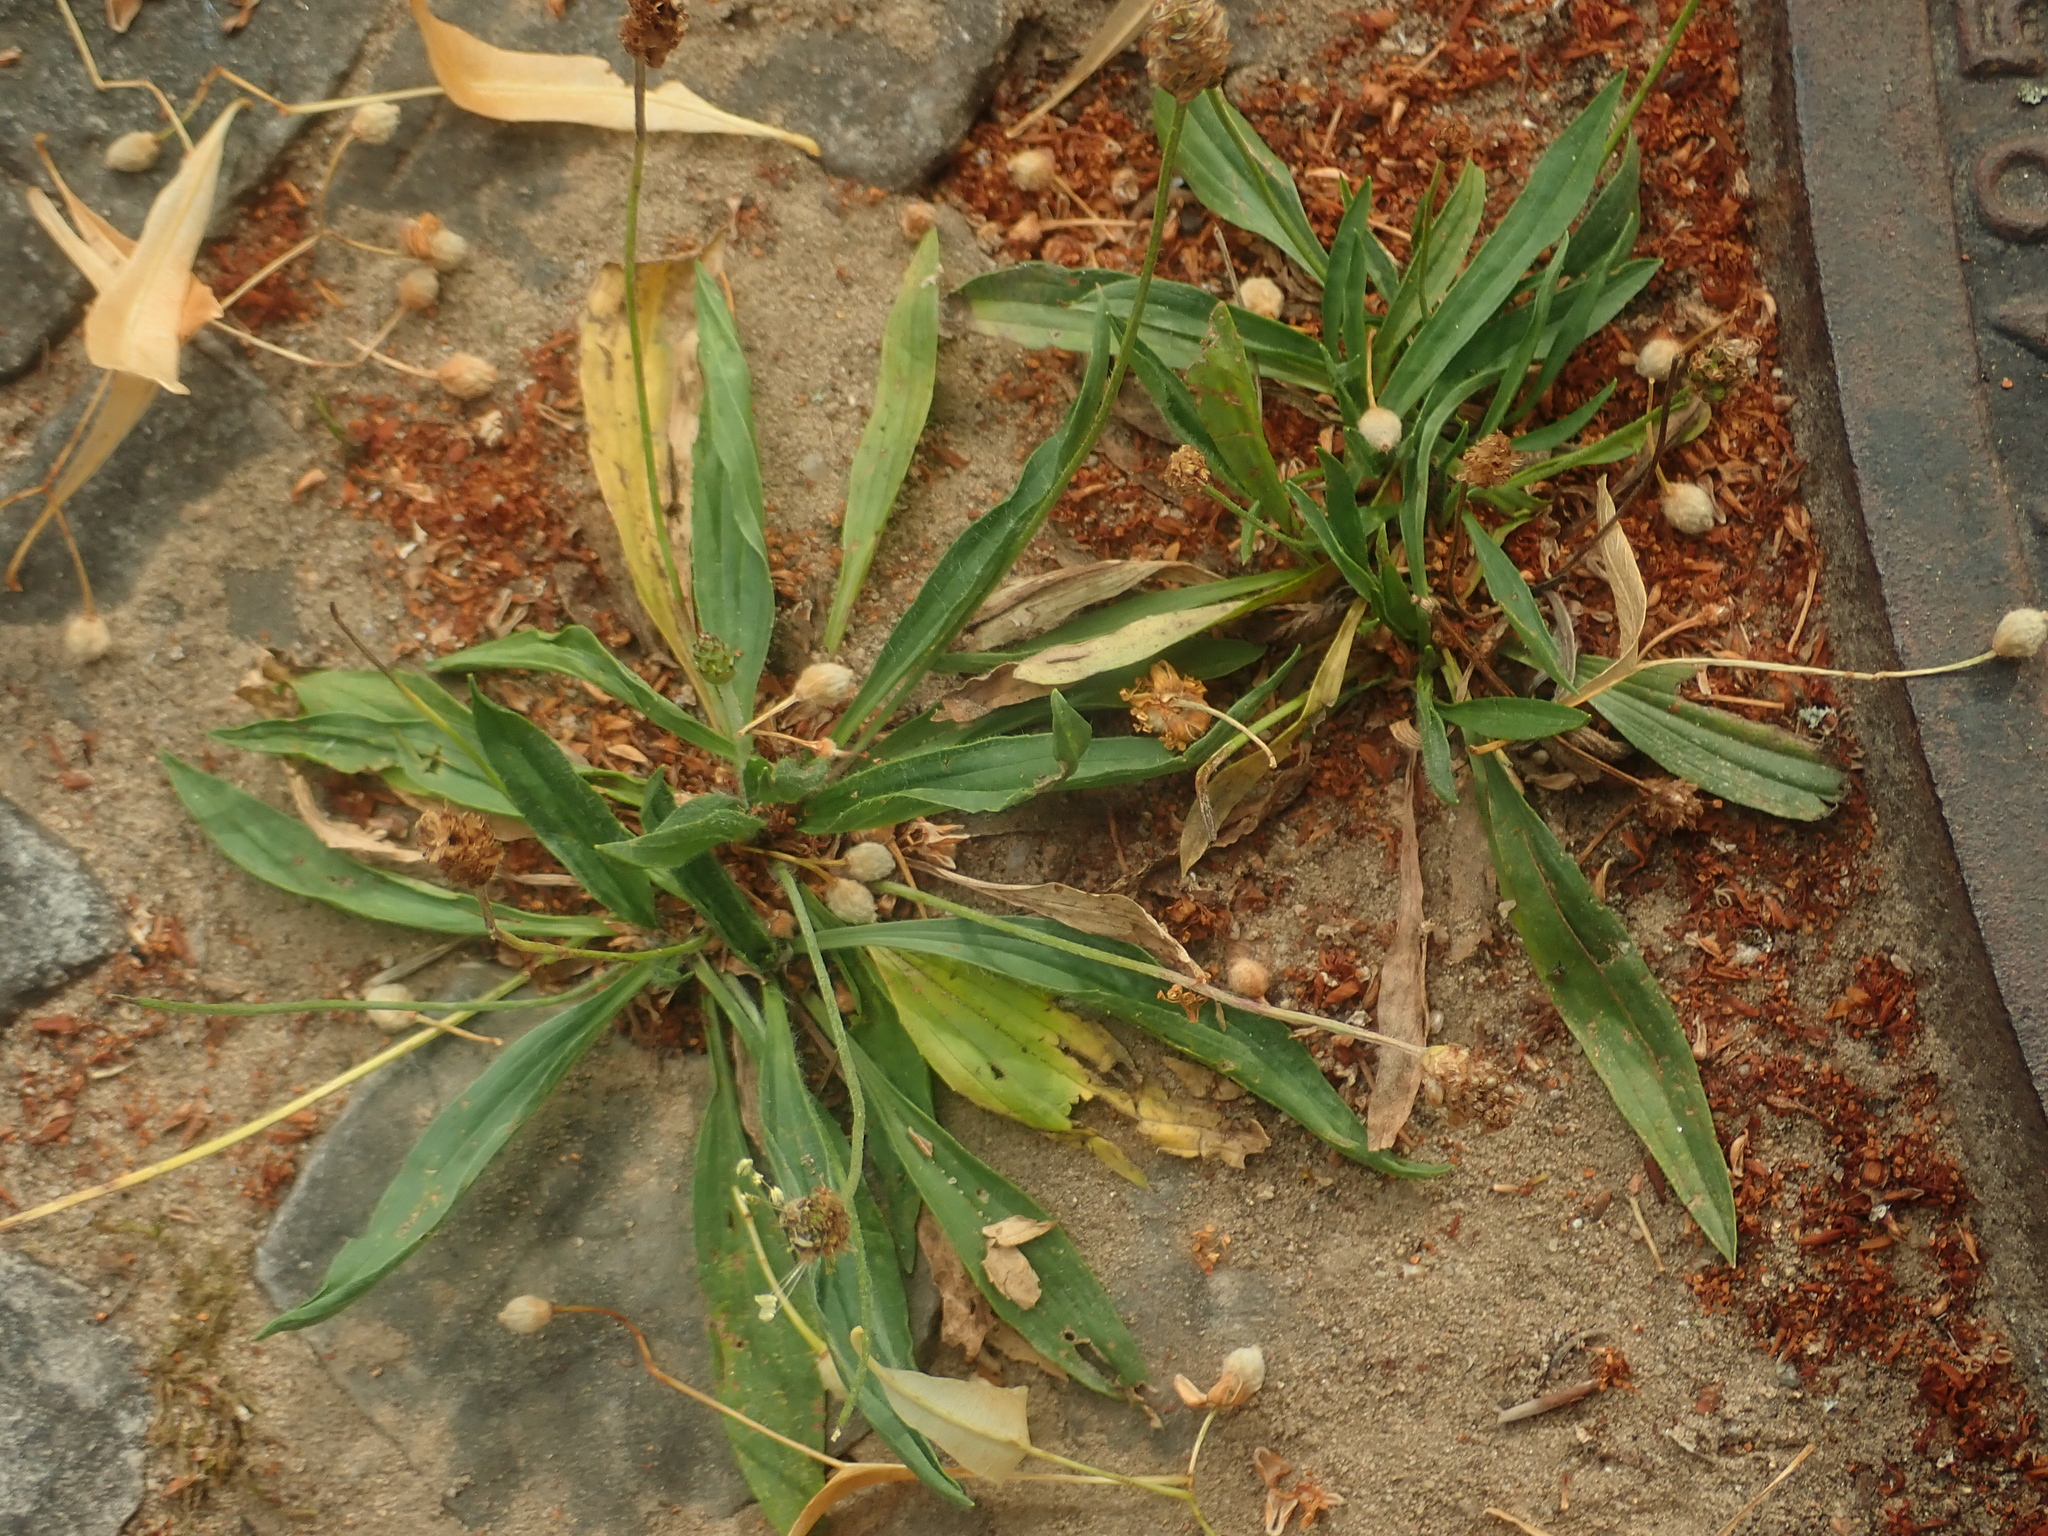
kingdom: Plantae
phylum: Tracheophyta
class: Magnoliopsida
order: Lamiales
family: Plantaginaceae
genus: Plantago
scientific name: Plantago lanceolata
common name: Ribwort plantain
